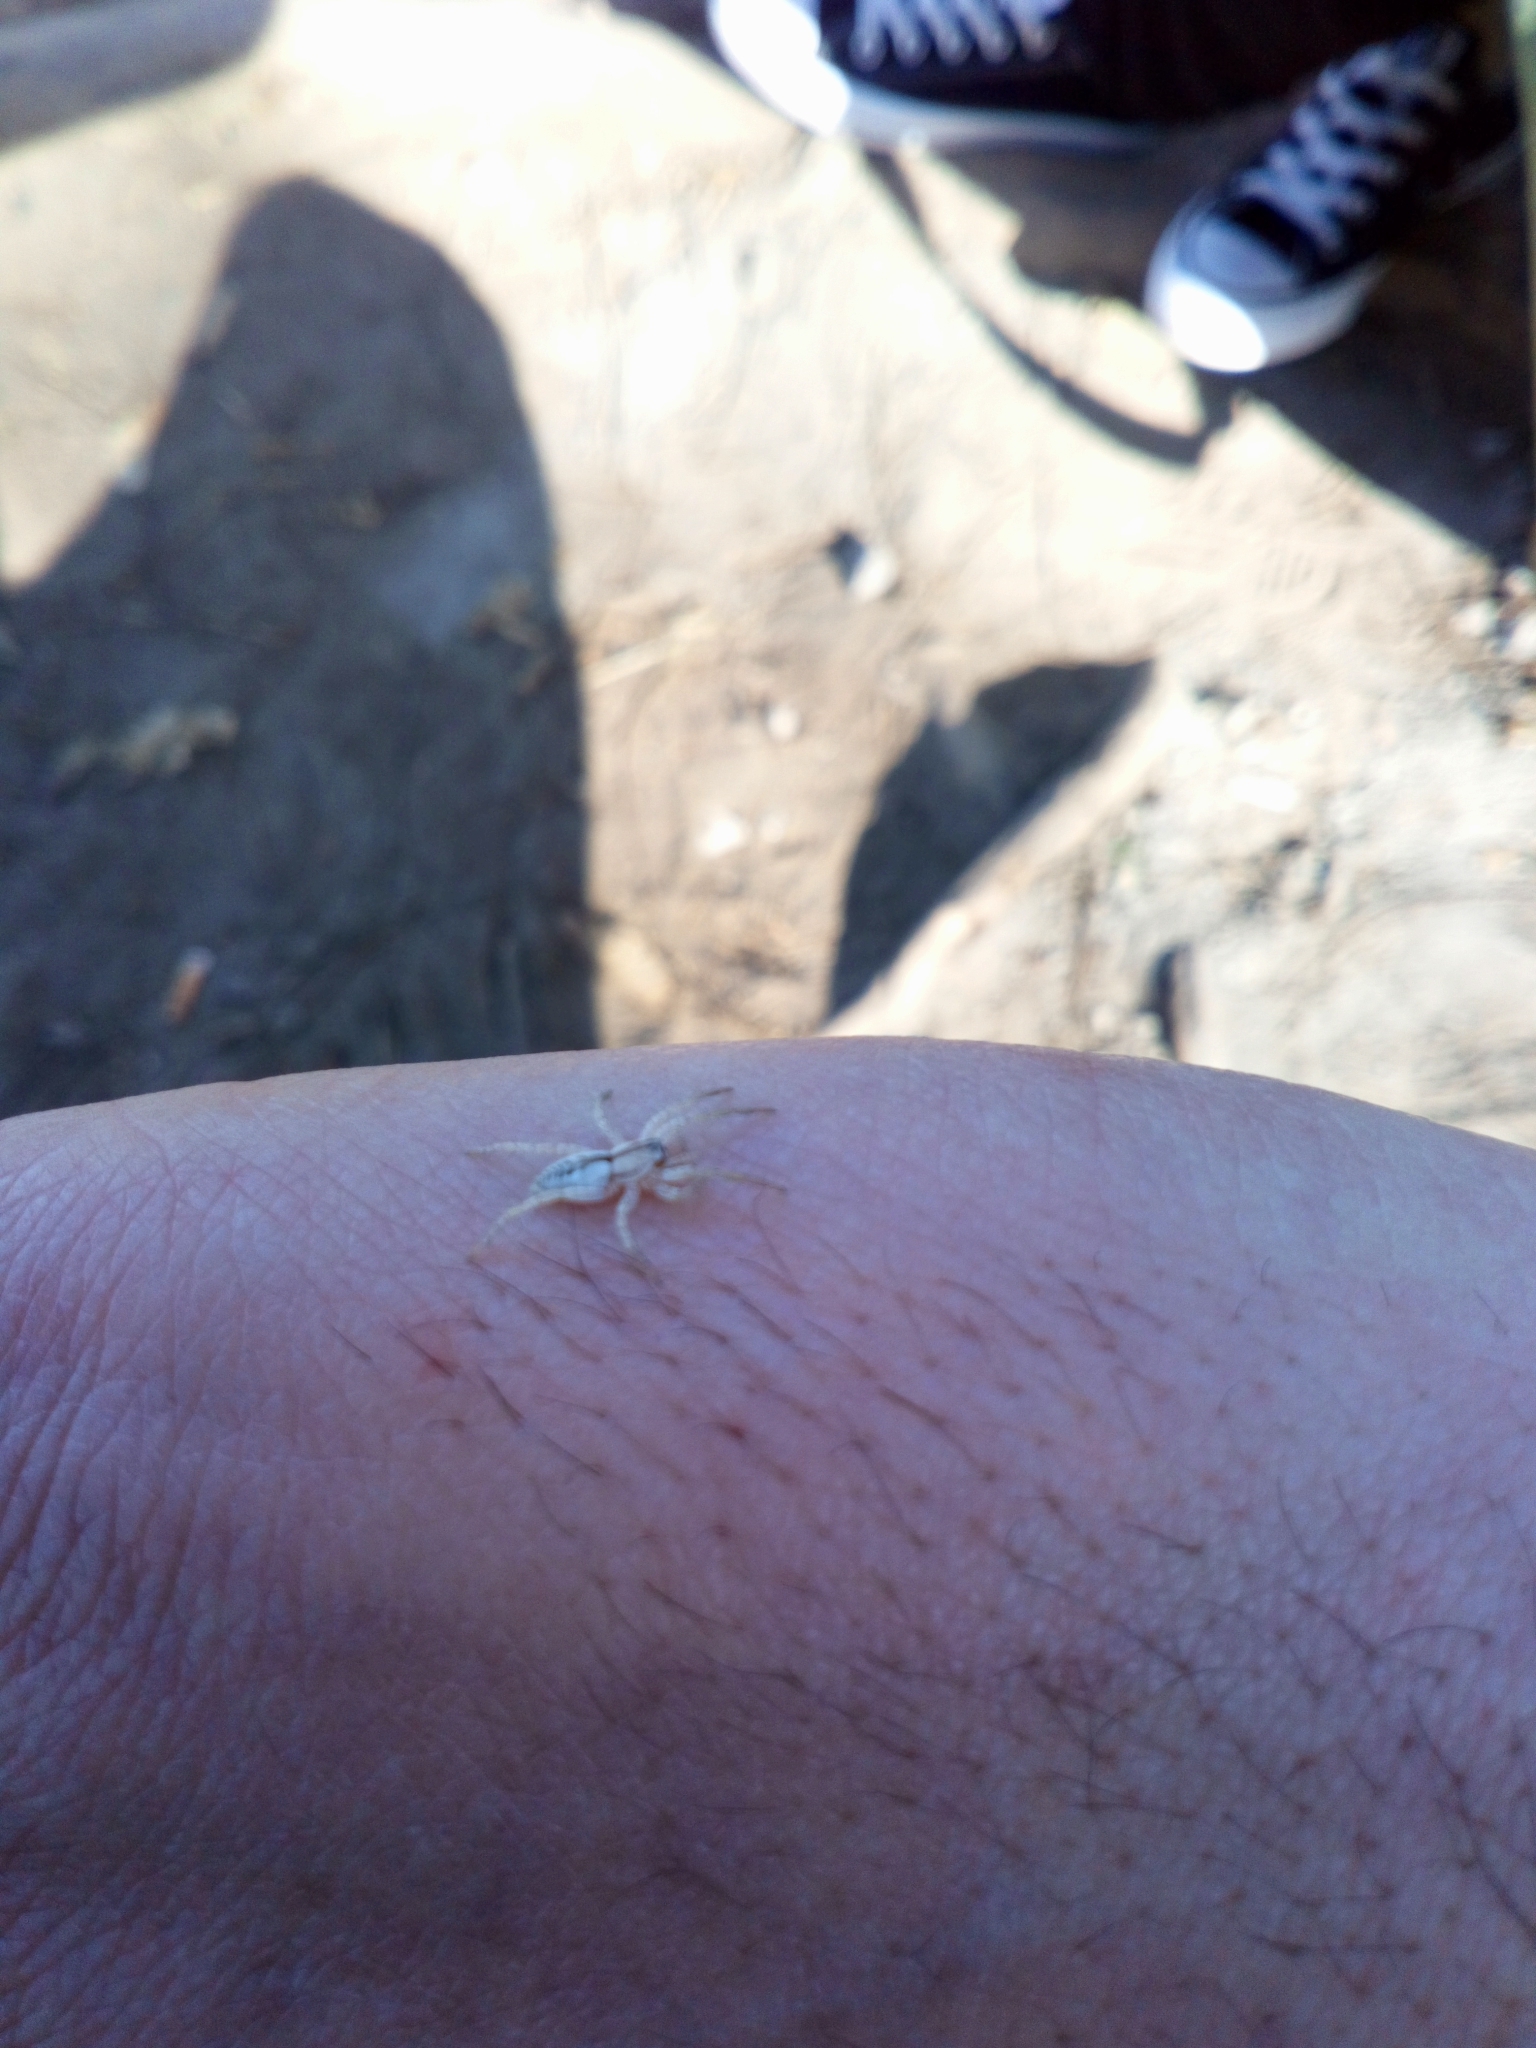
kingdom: Animalia
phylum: Arthropoda
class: Arachnida
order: Araneae
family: Anyphaenidae
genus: Arachosia
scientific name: Arachosia praesignis
